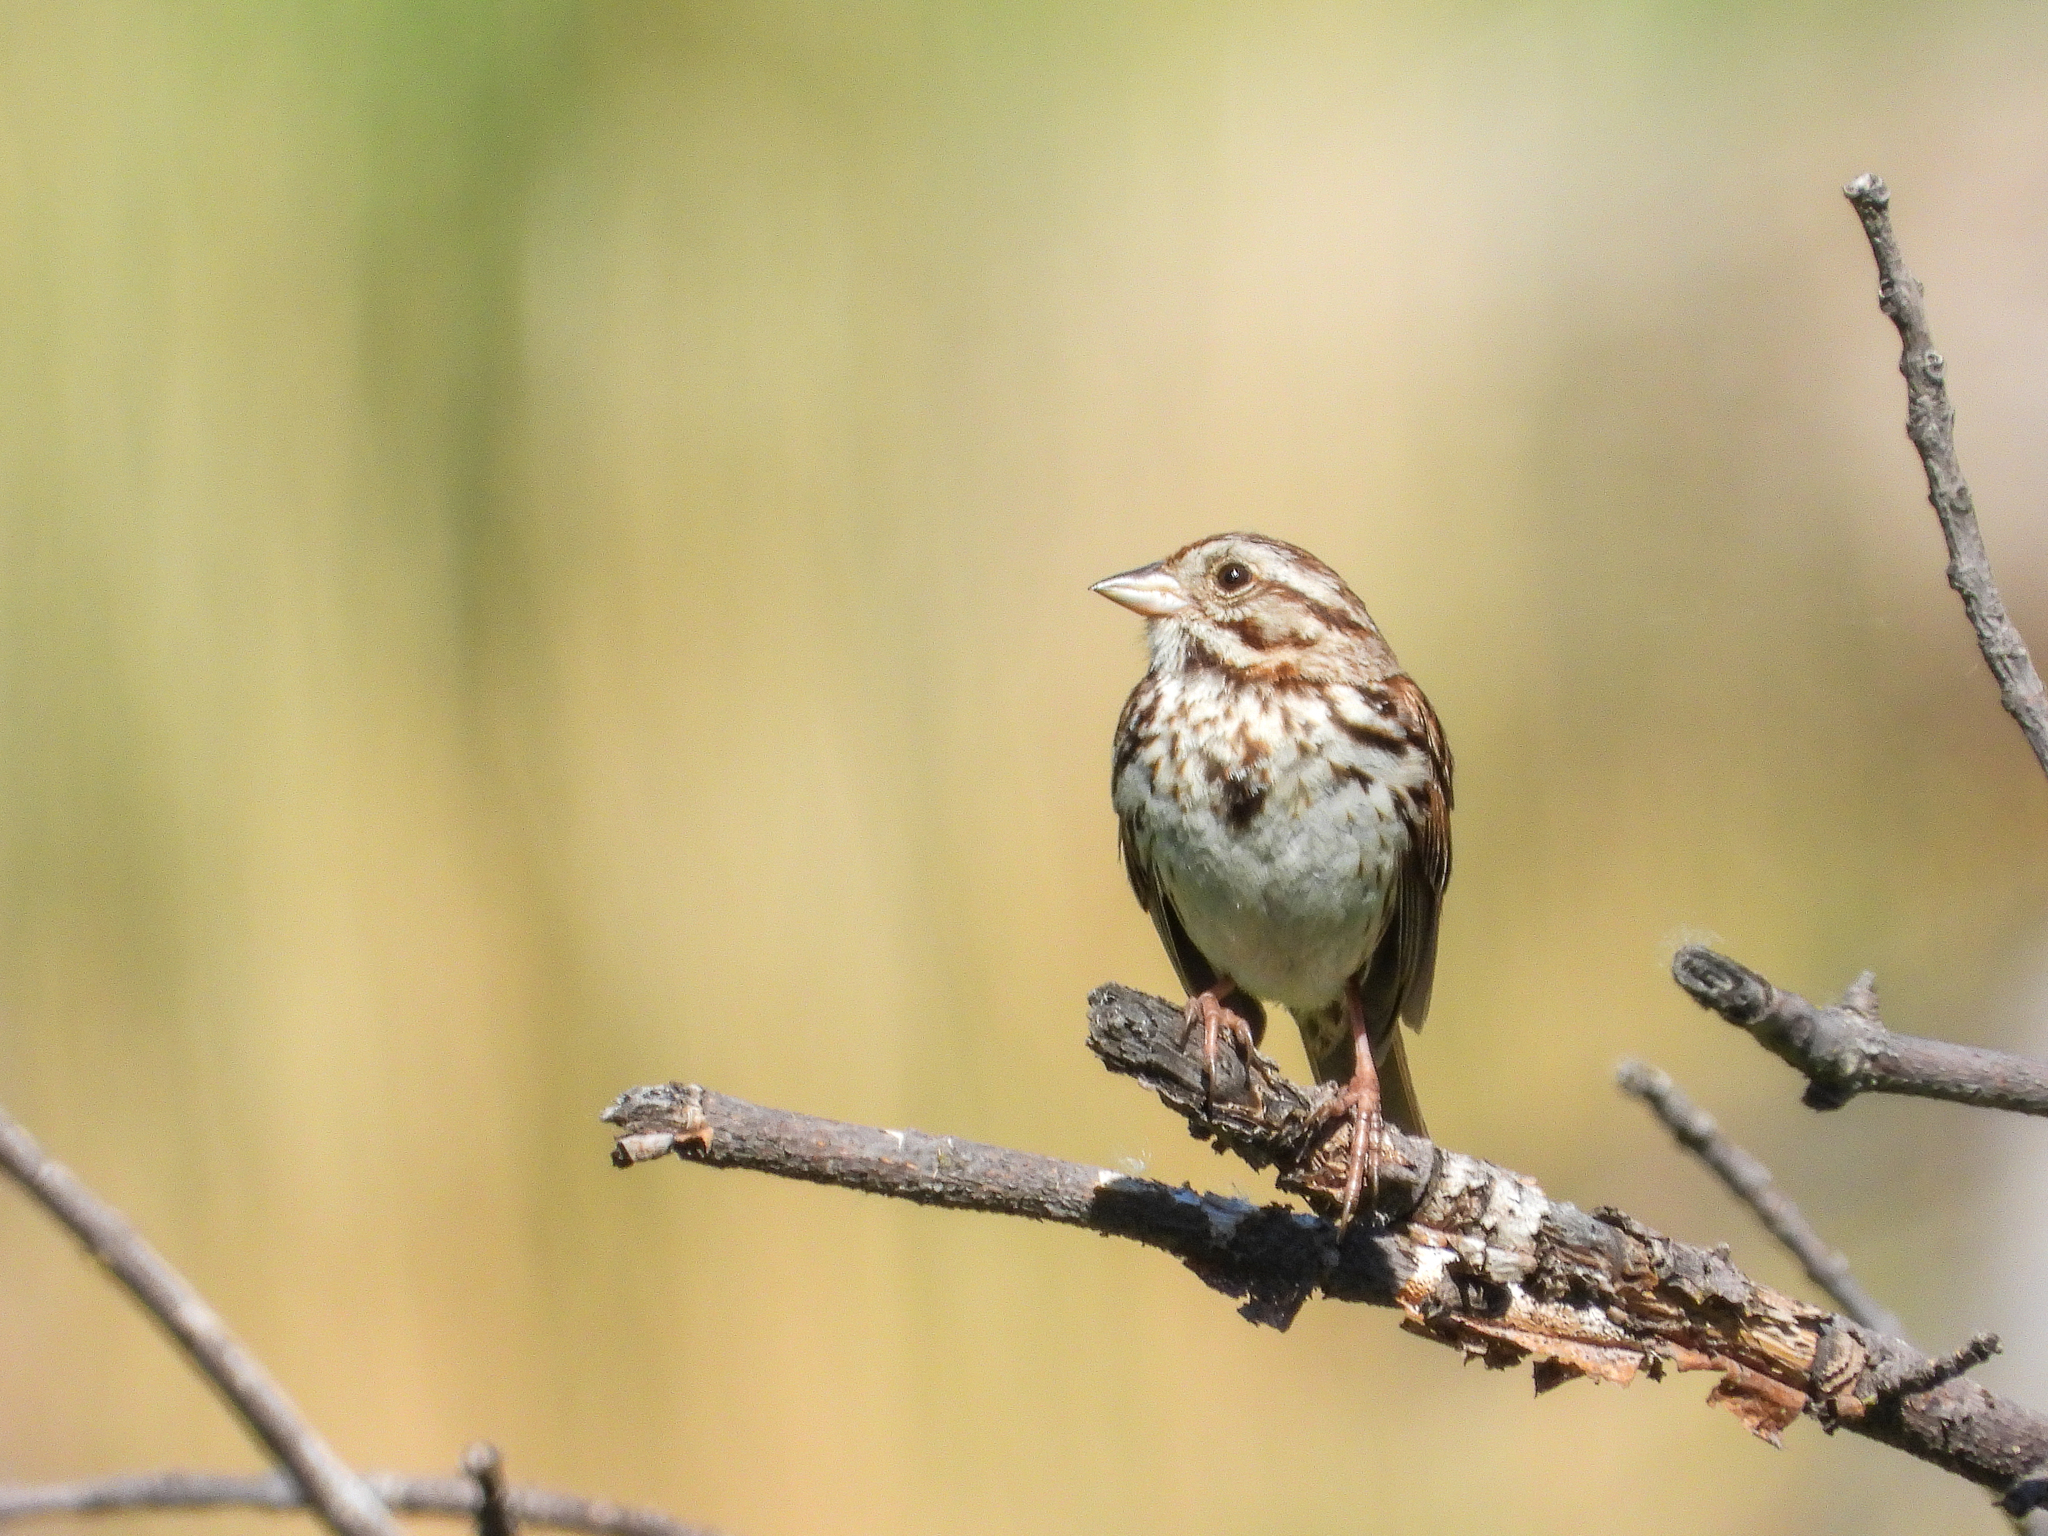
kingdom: Animalia
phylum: Chordata
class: Aves
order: Passeriformes
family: Passerellidae
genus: Melospiza
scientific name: Melospiza melodia
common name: Song sparrow
